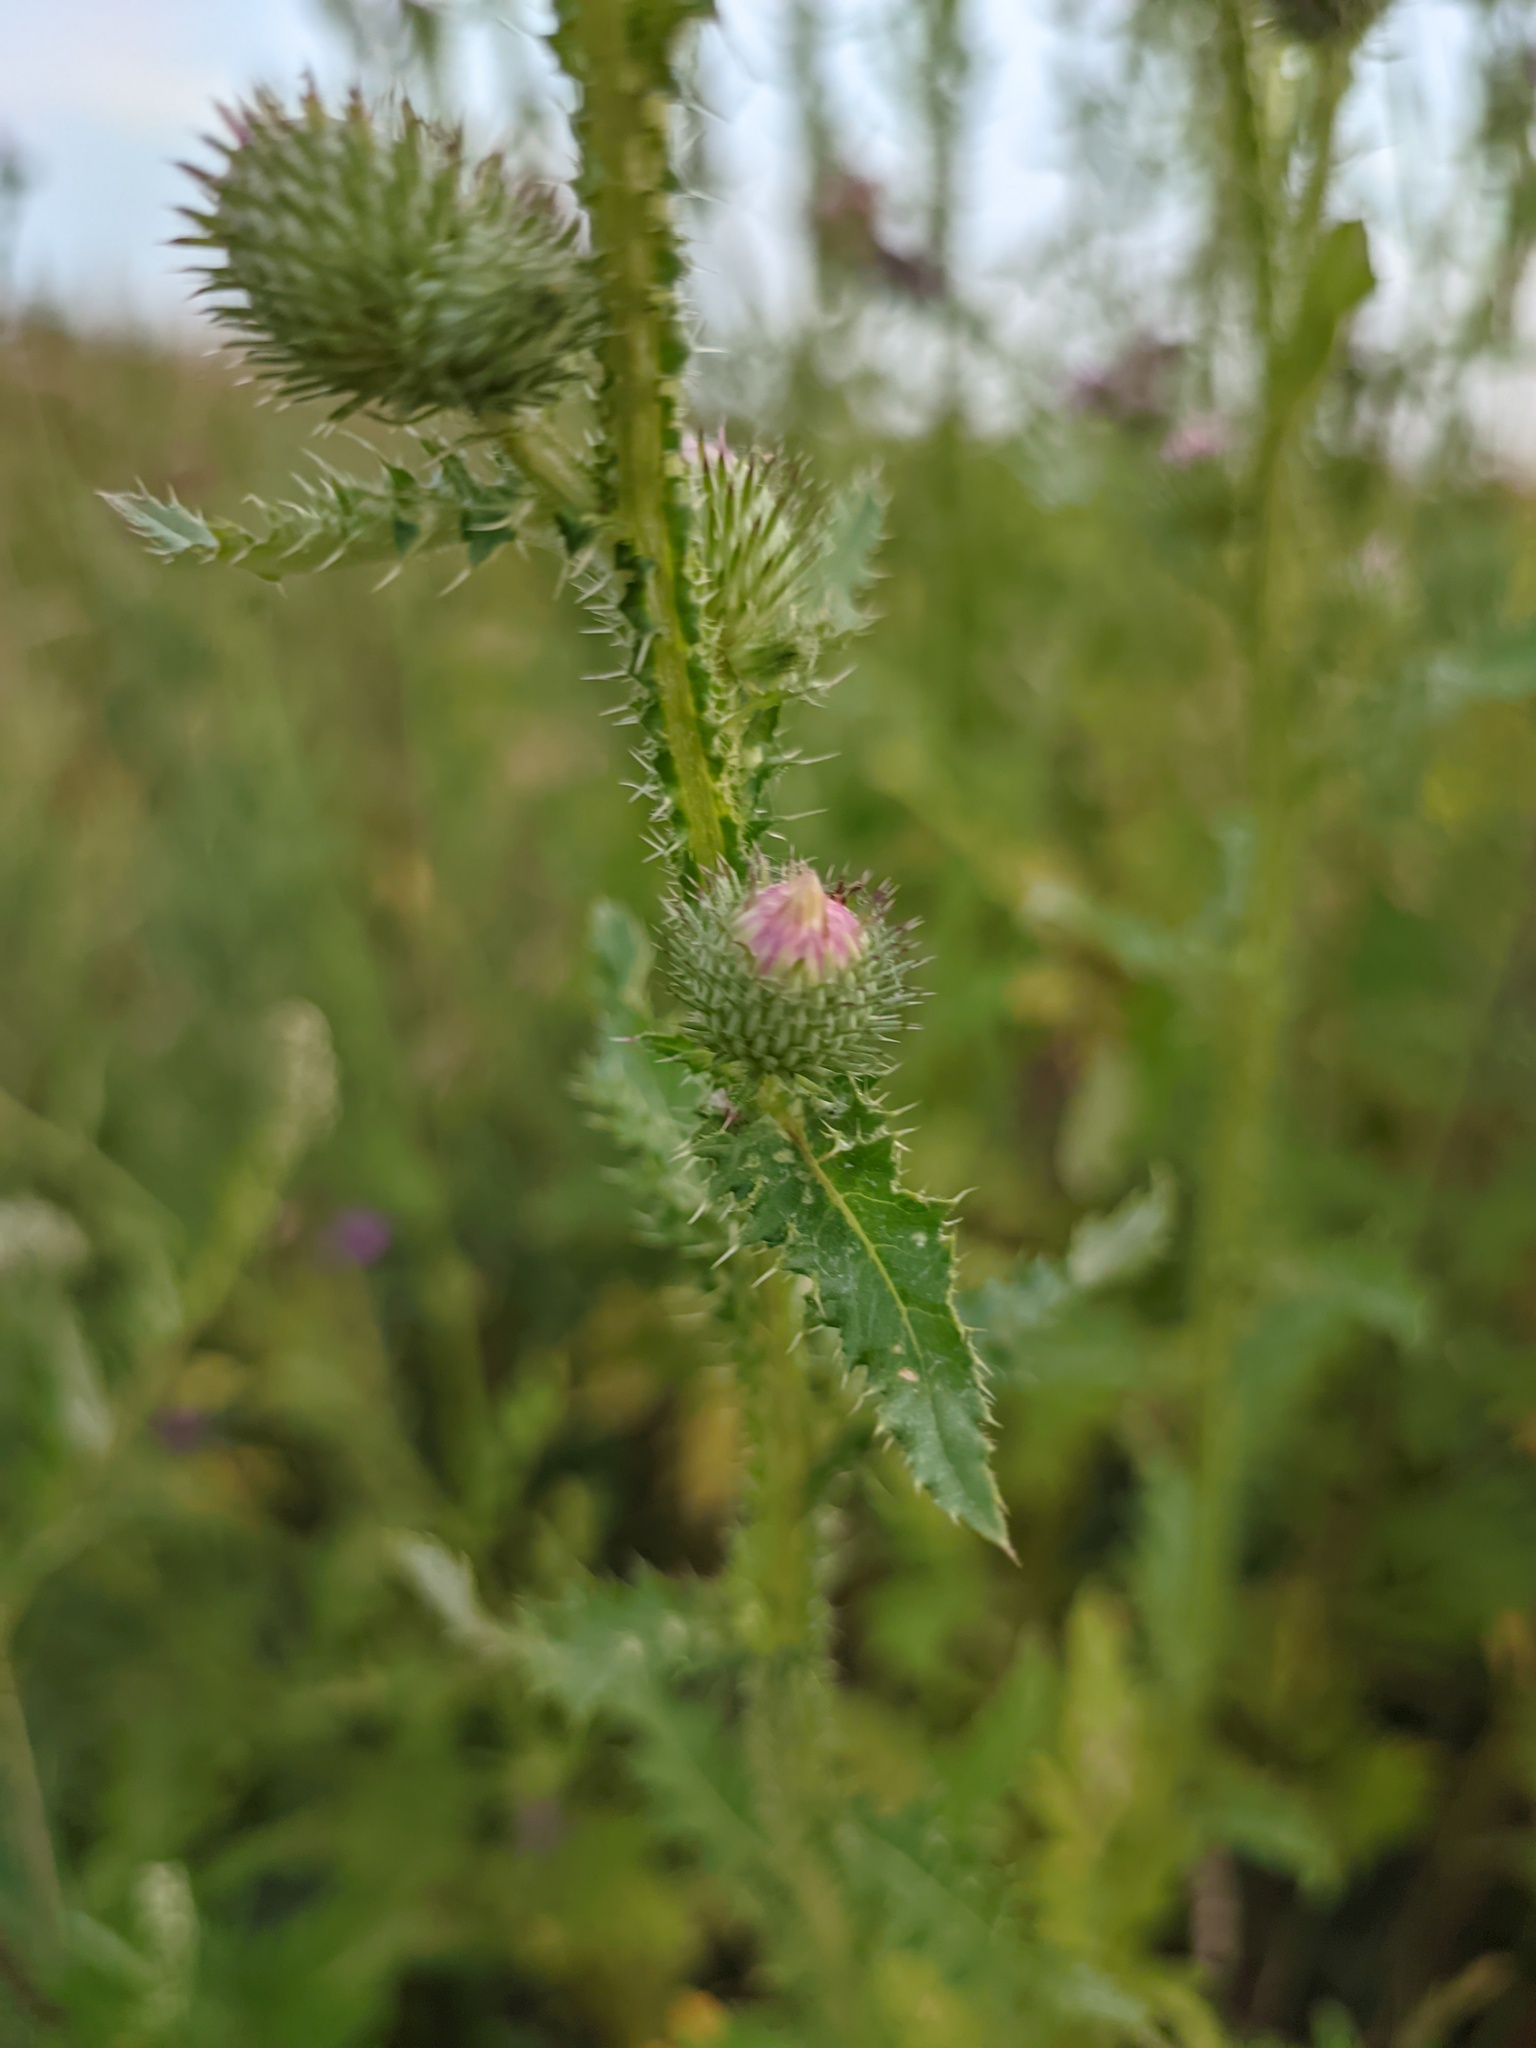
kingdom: Plantae
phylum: Tracheophyta
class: Magnoliopsida
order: Asterales
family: Asteraceae
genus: Carduus
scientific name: Carduus crispus
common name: Welted thistle
